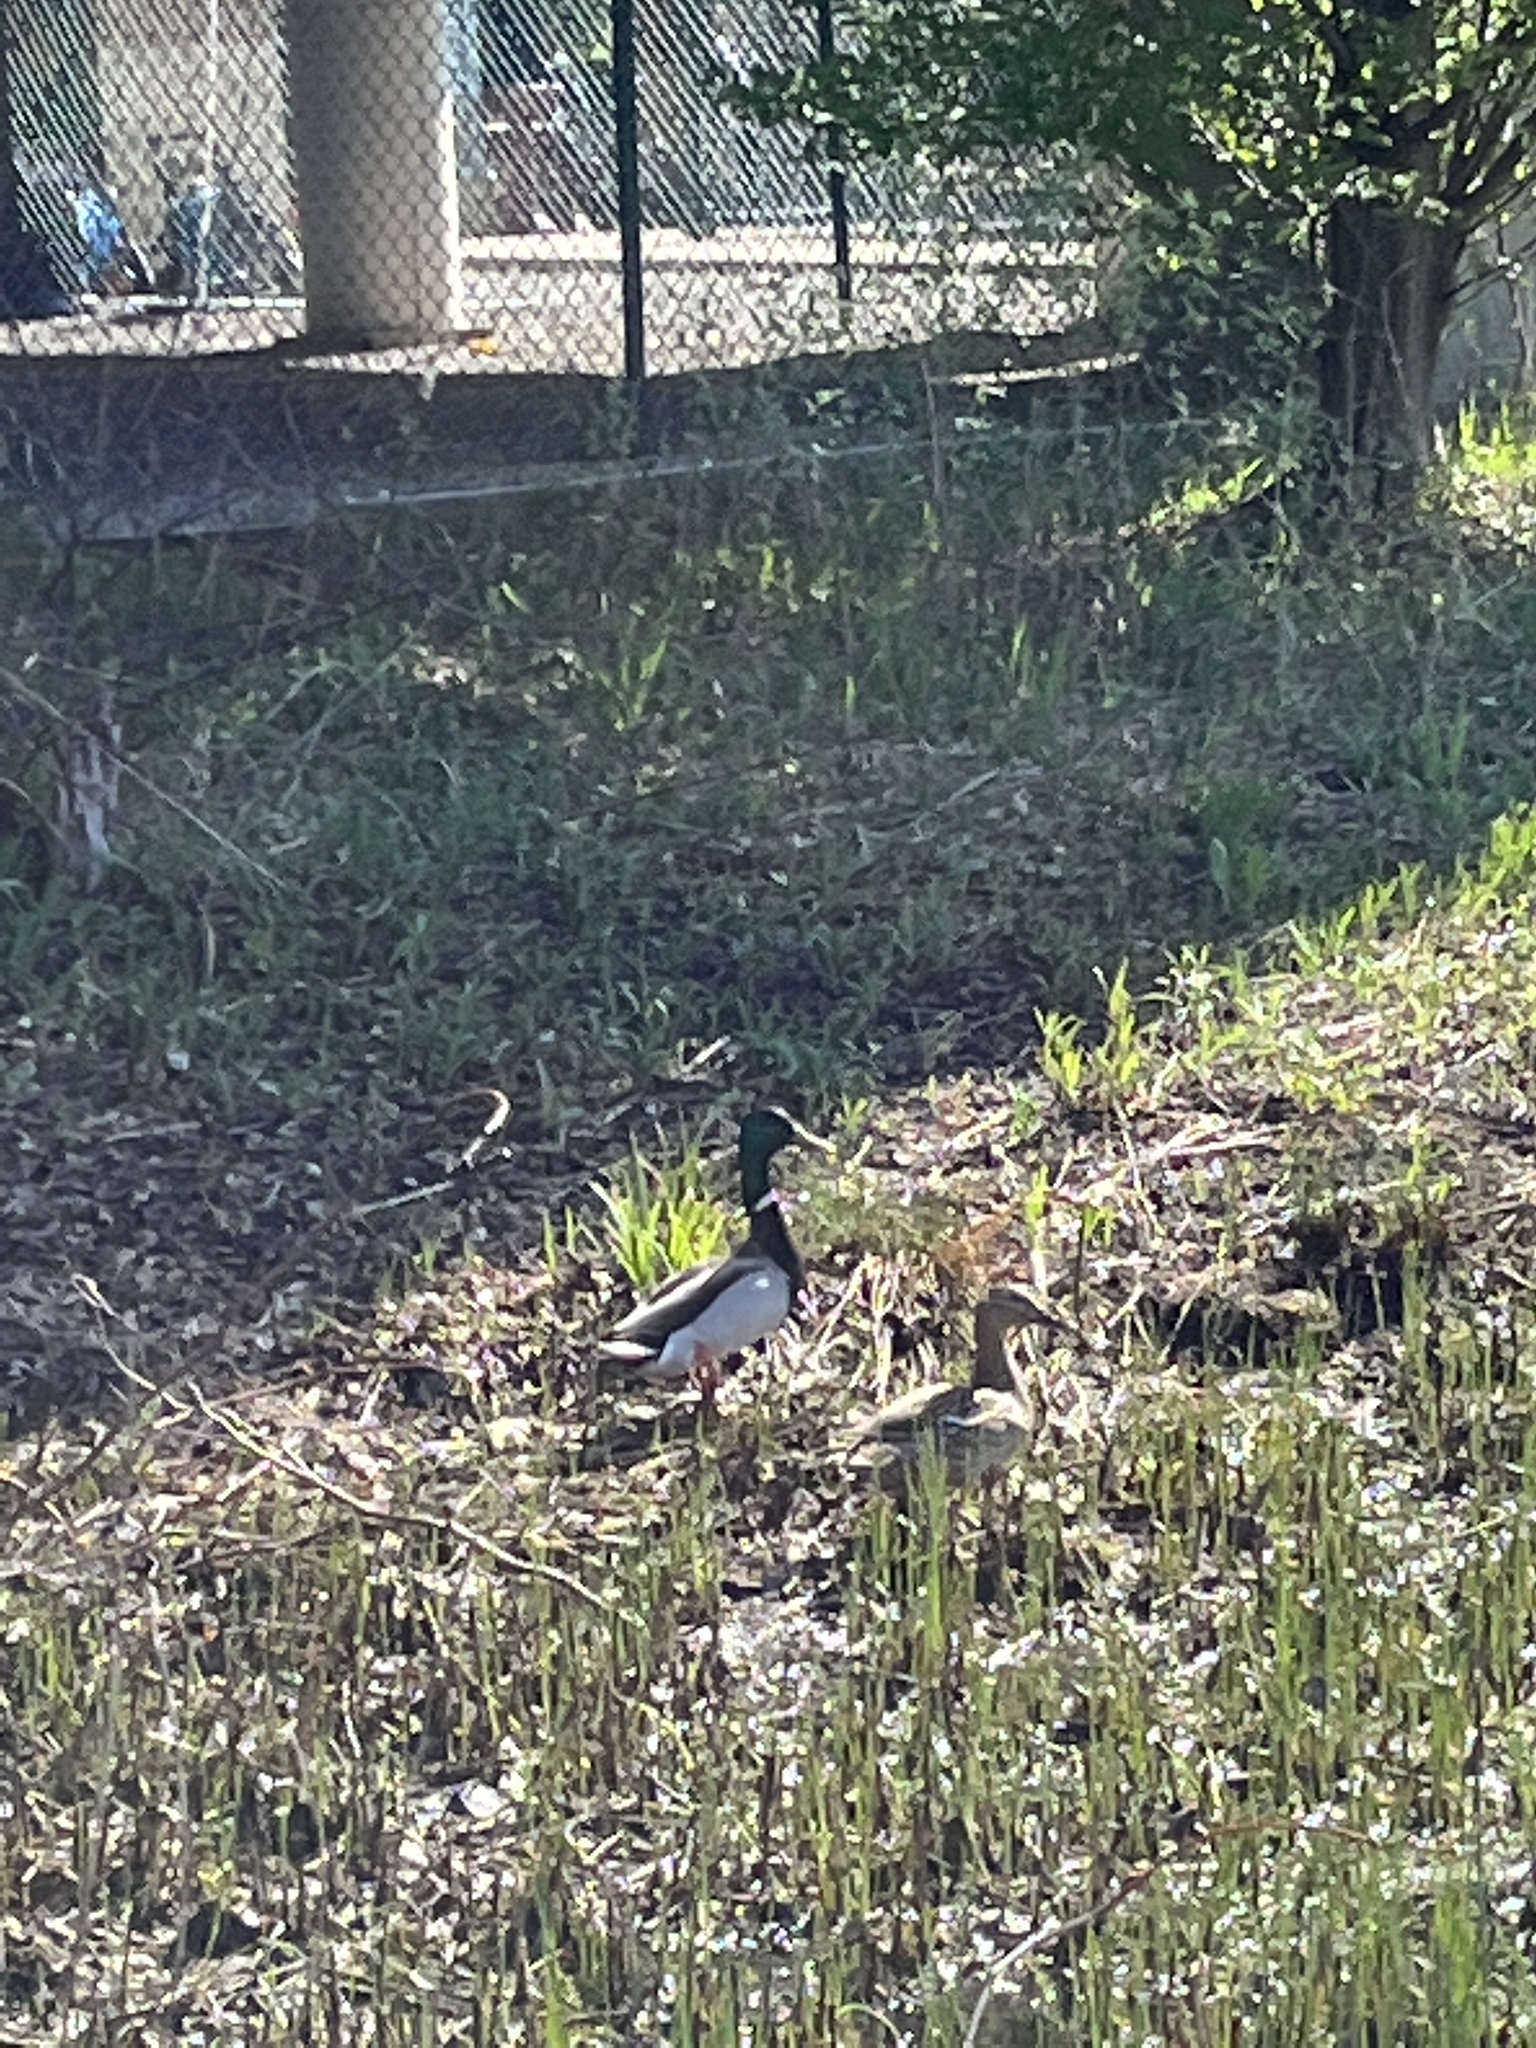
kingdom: Animalia
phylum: Chordata
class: Aves
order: Anseriformes
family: Anatidae
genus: Anas
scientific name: Anas platyrhynchos
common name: Mallard
